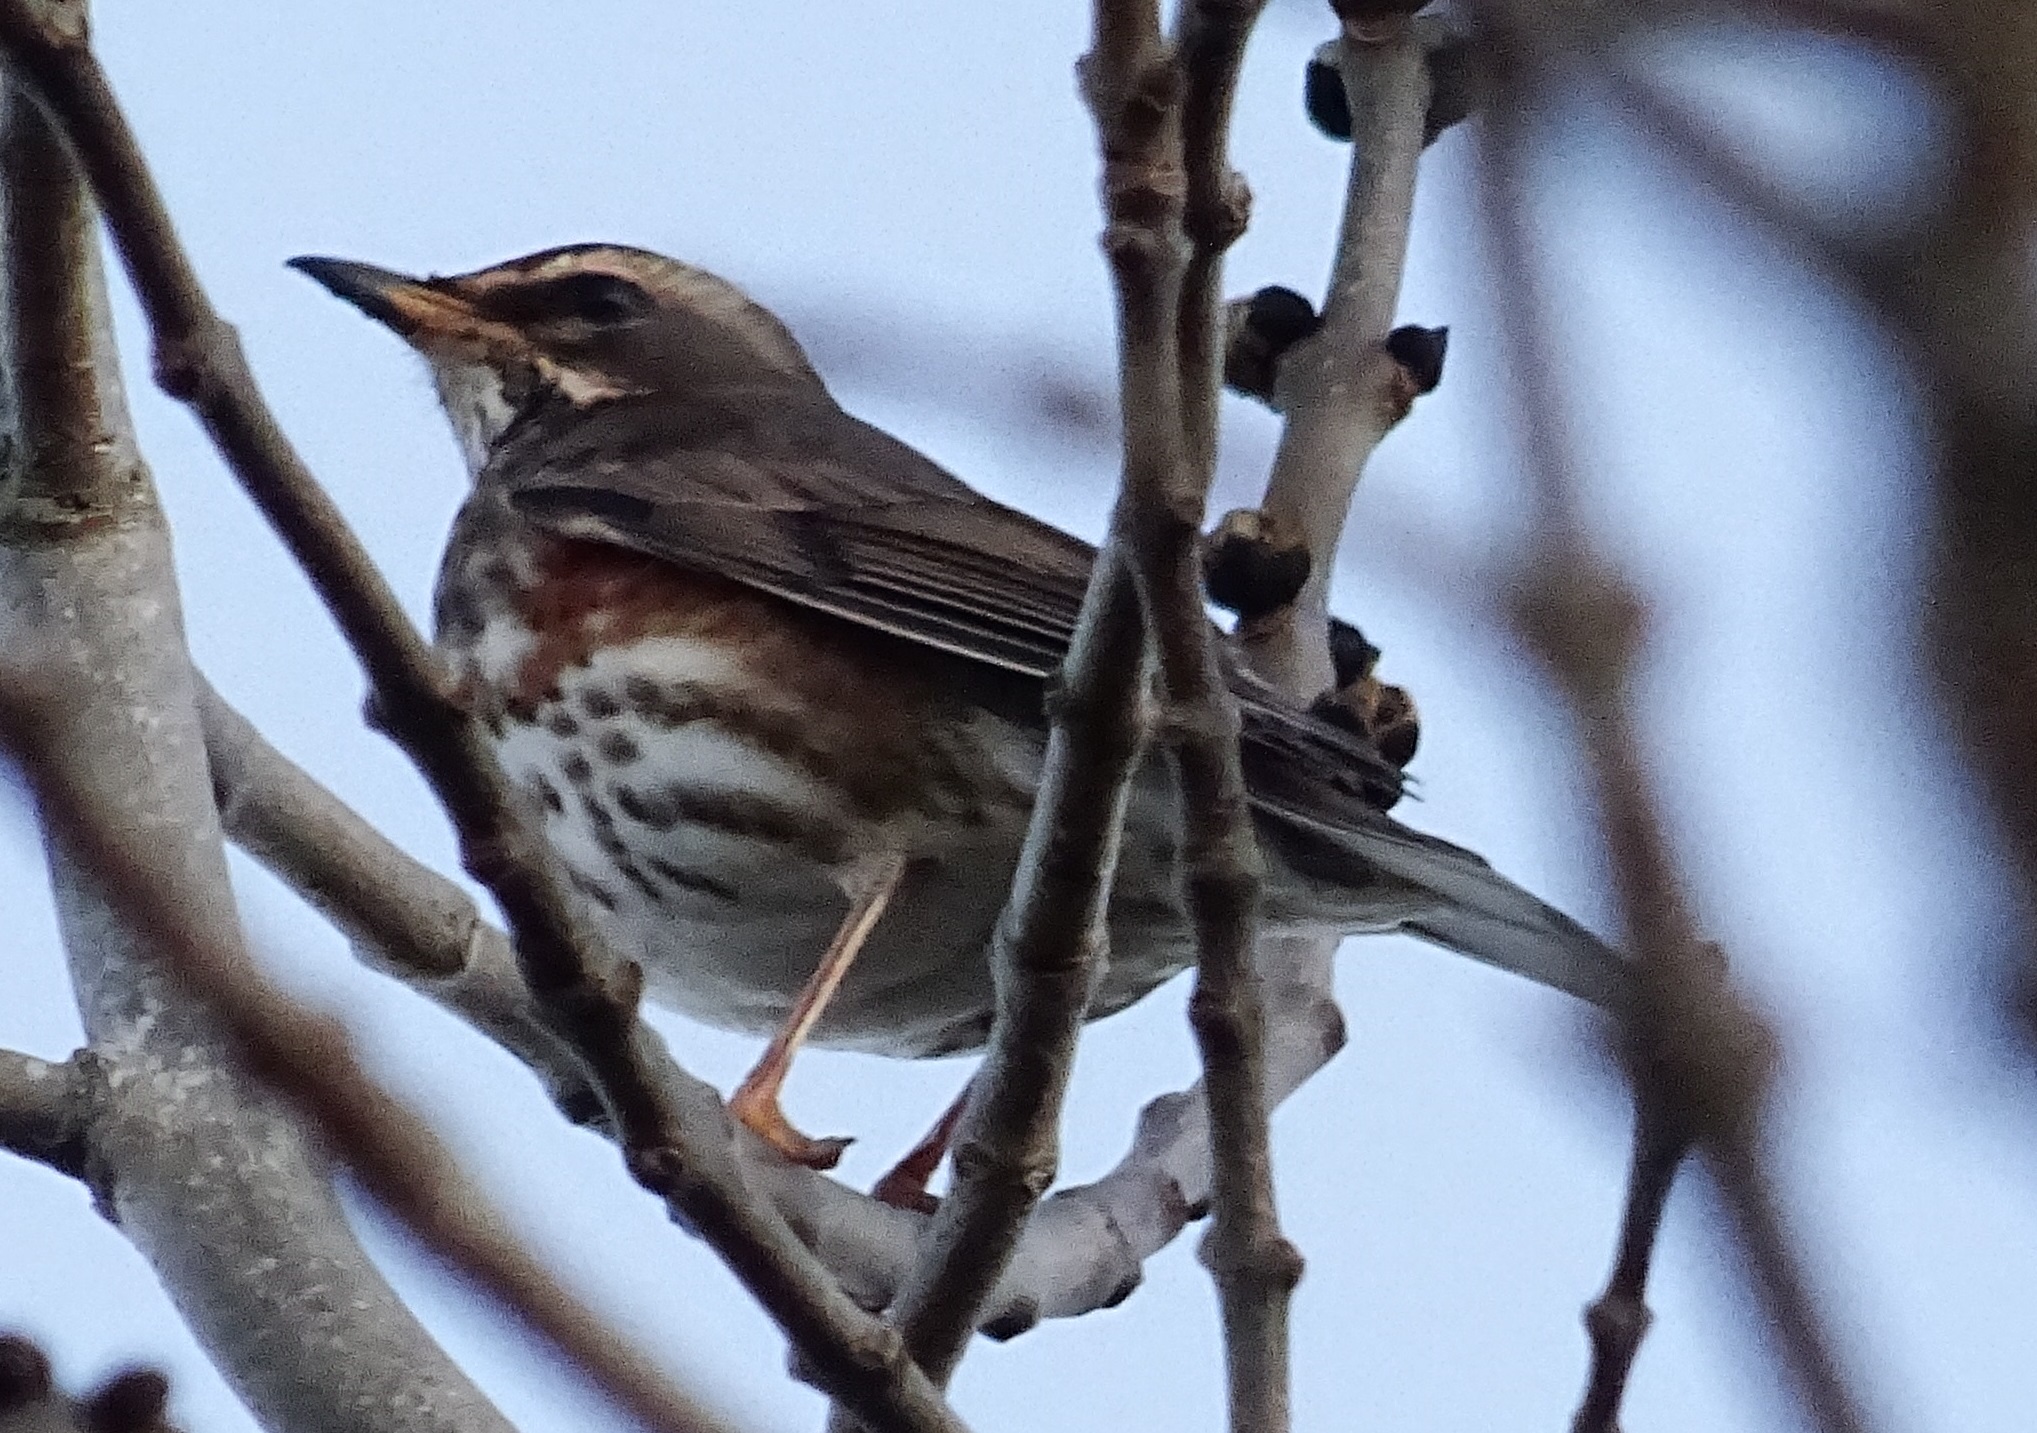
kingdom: Animalia
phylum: Chordata
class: Aves
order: Passeriformes
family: Turdidae
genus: Turdus
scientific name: Turdus iliacus
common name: Redwing
